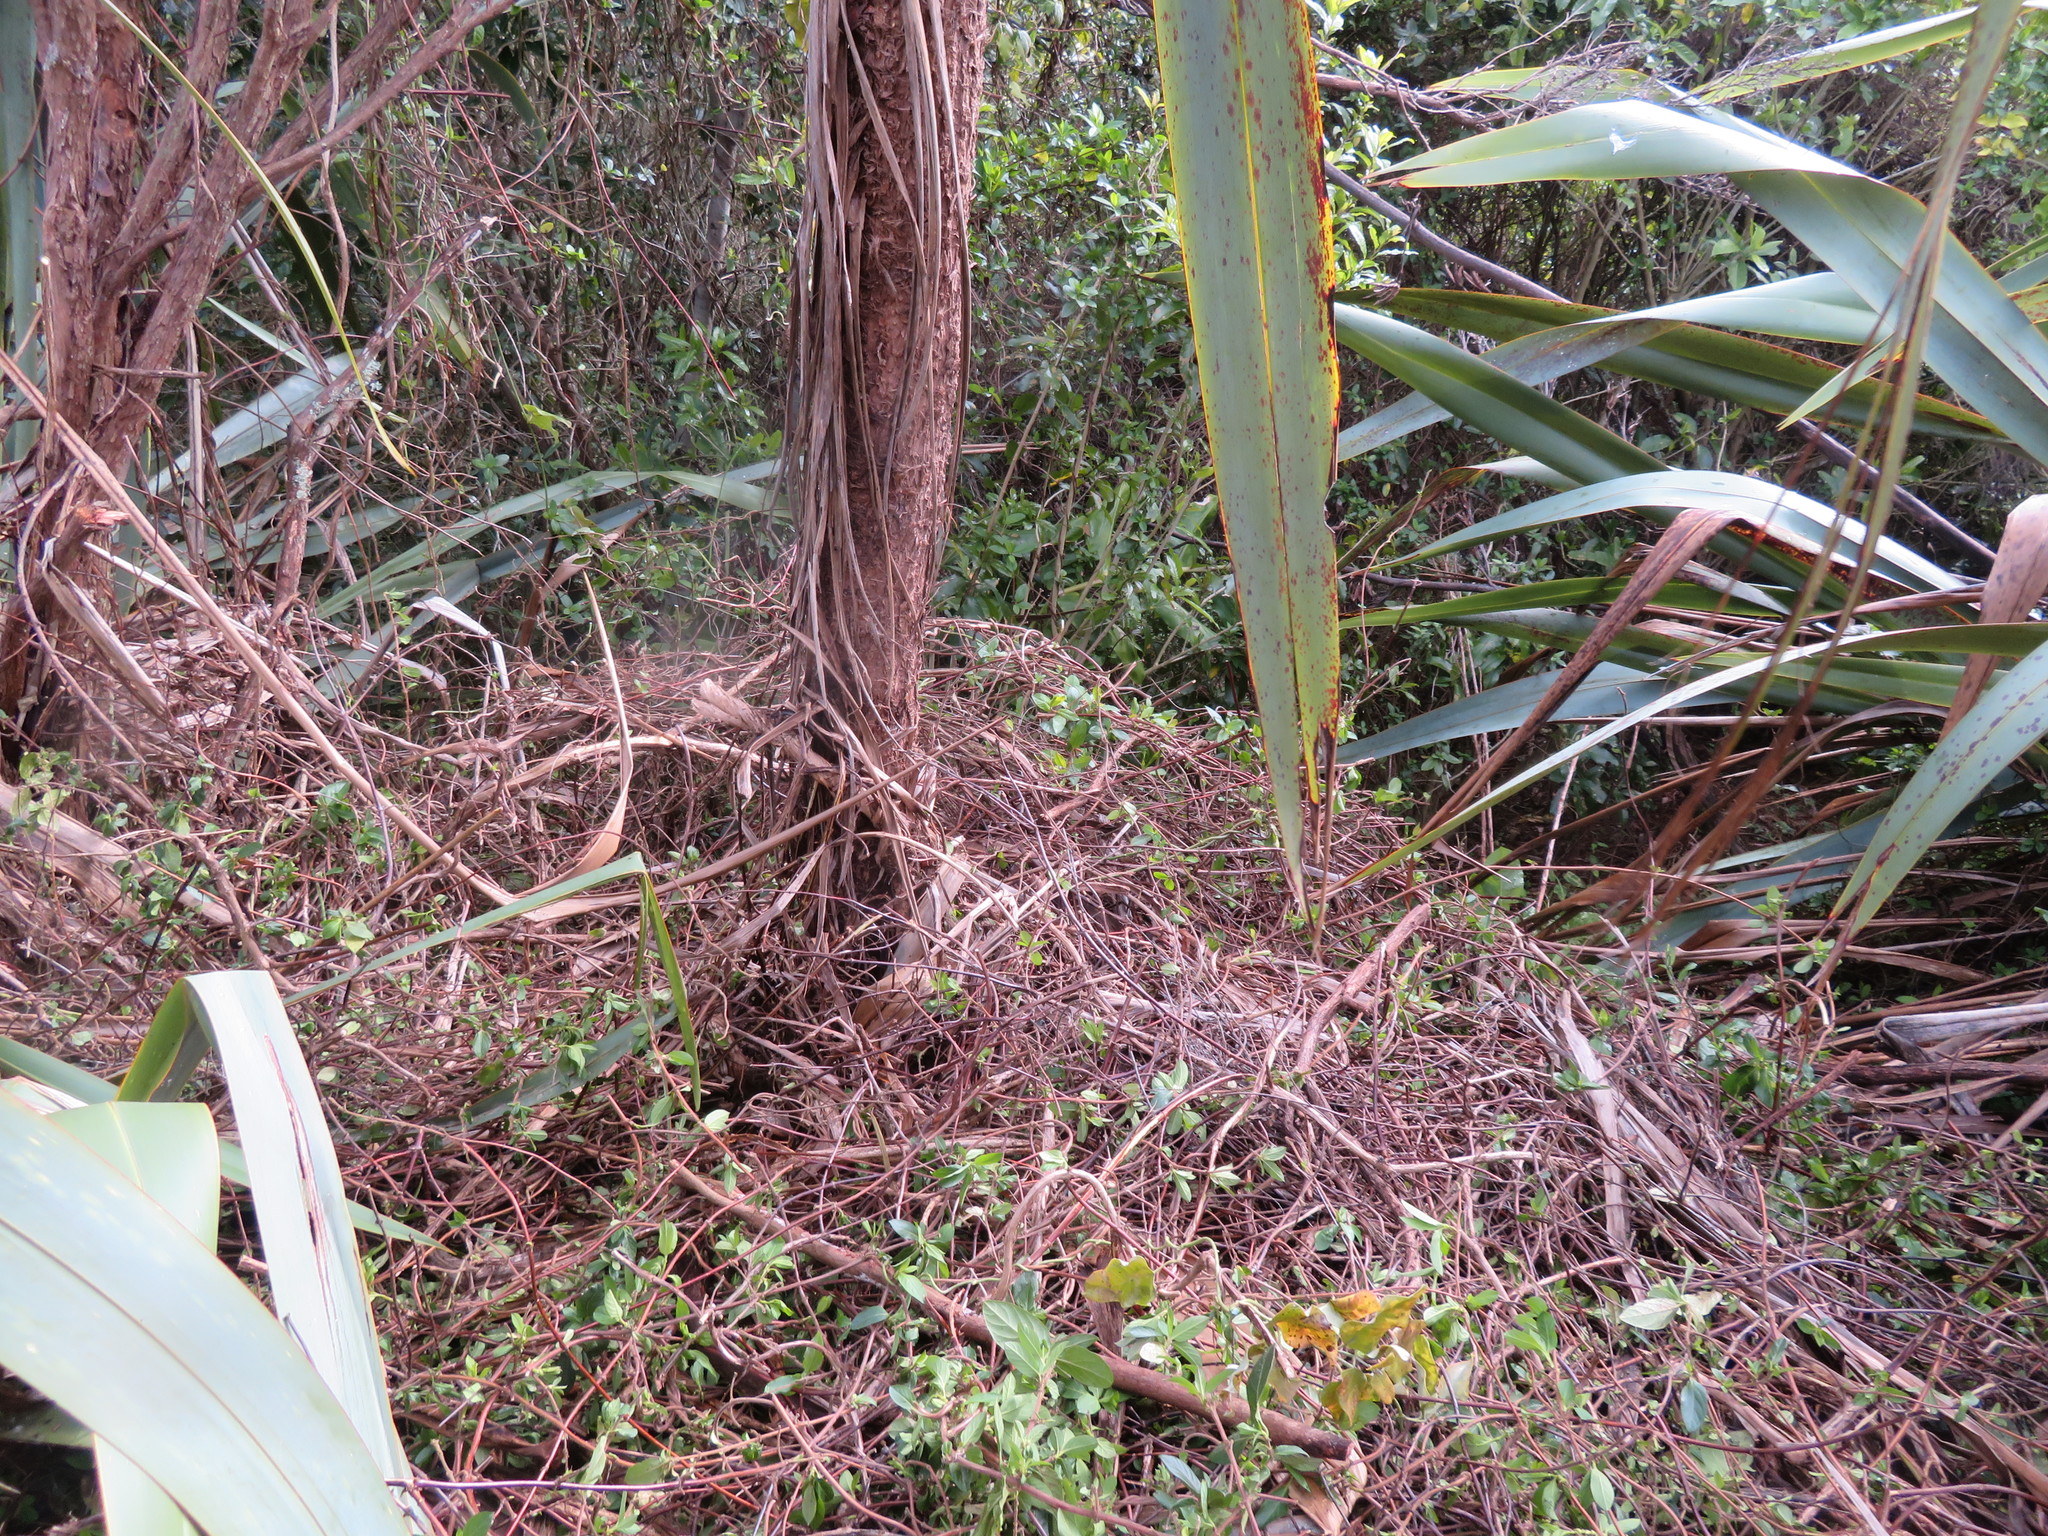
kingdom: Plantae
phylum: Tracheophyta
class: Liliopsida
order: Asparagales
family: Asparagaceae
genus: Cordyline
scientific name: Cordyline australis
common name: Cabbage-palm
